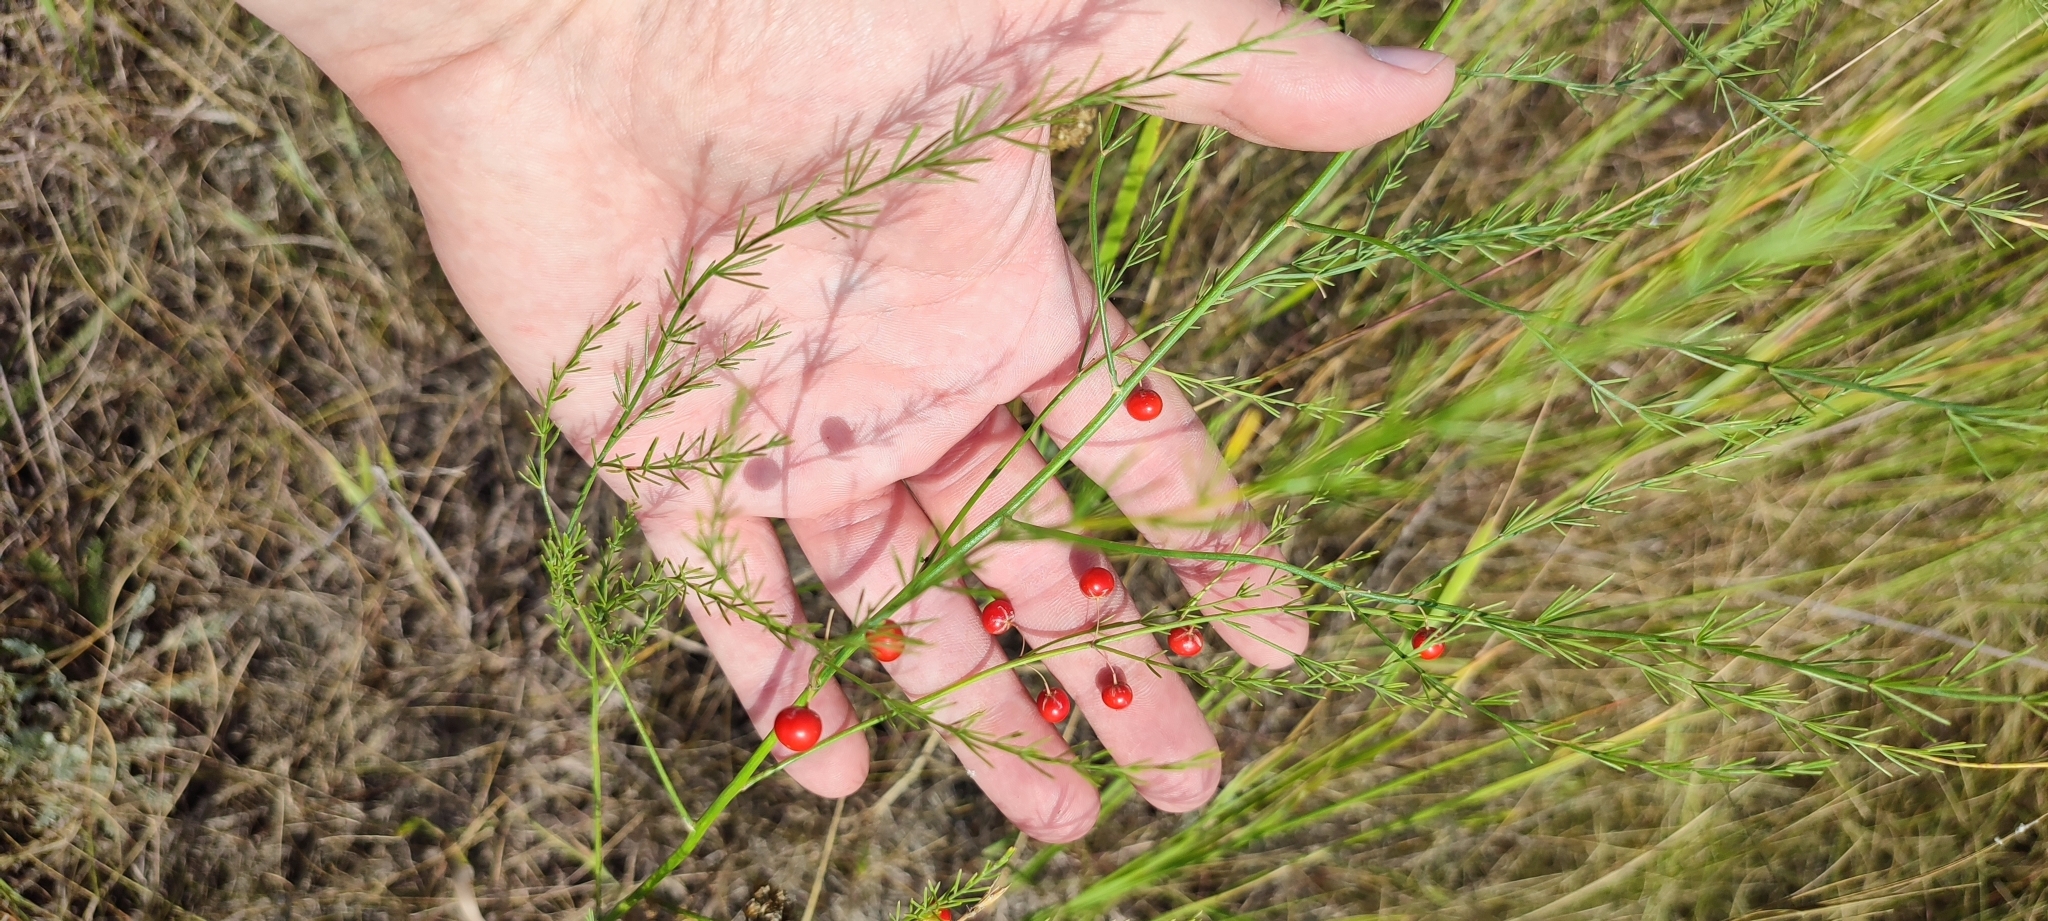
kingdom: Plantae
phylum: Tracheophyta
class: Liliopsida
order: Asparagales
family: Asparagaceae
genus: Asparagus
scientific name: Asparagus officinalis
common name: Garden asparagus
